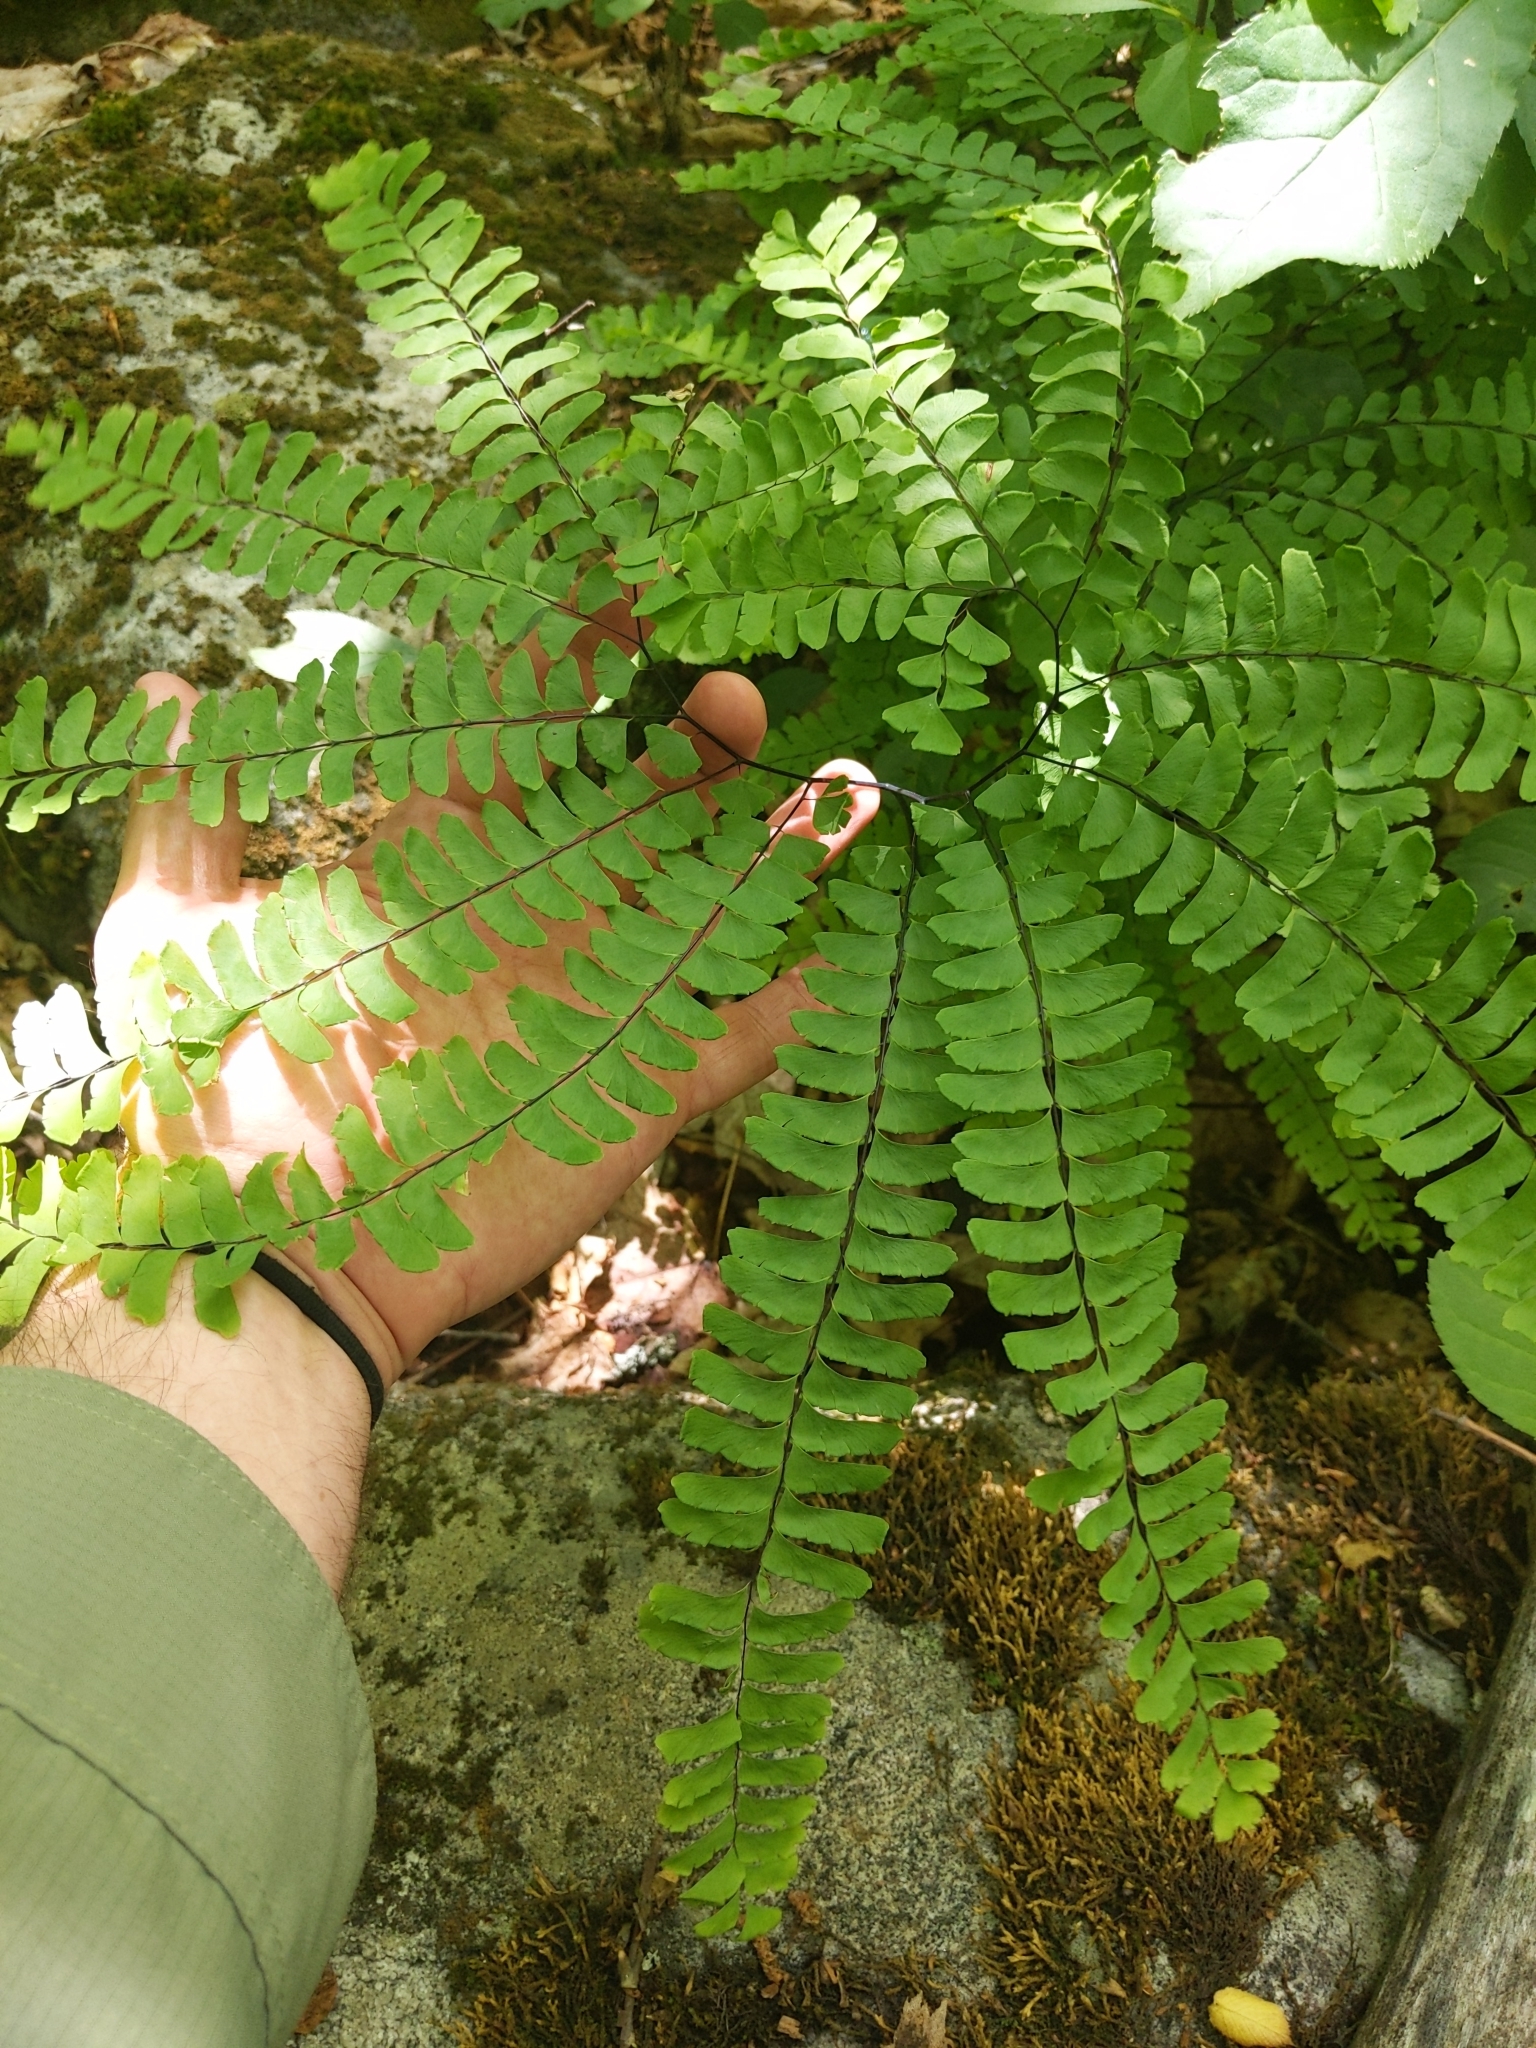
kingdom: Plantae
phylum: Tracheophyta
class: Polypodiopsida
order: Polypodiales
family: Pteridaceae
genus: Adiantum
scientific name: Adiantum pedatum
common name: Five-finger fern
